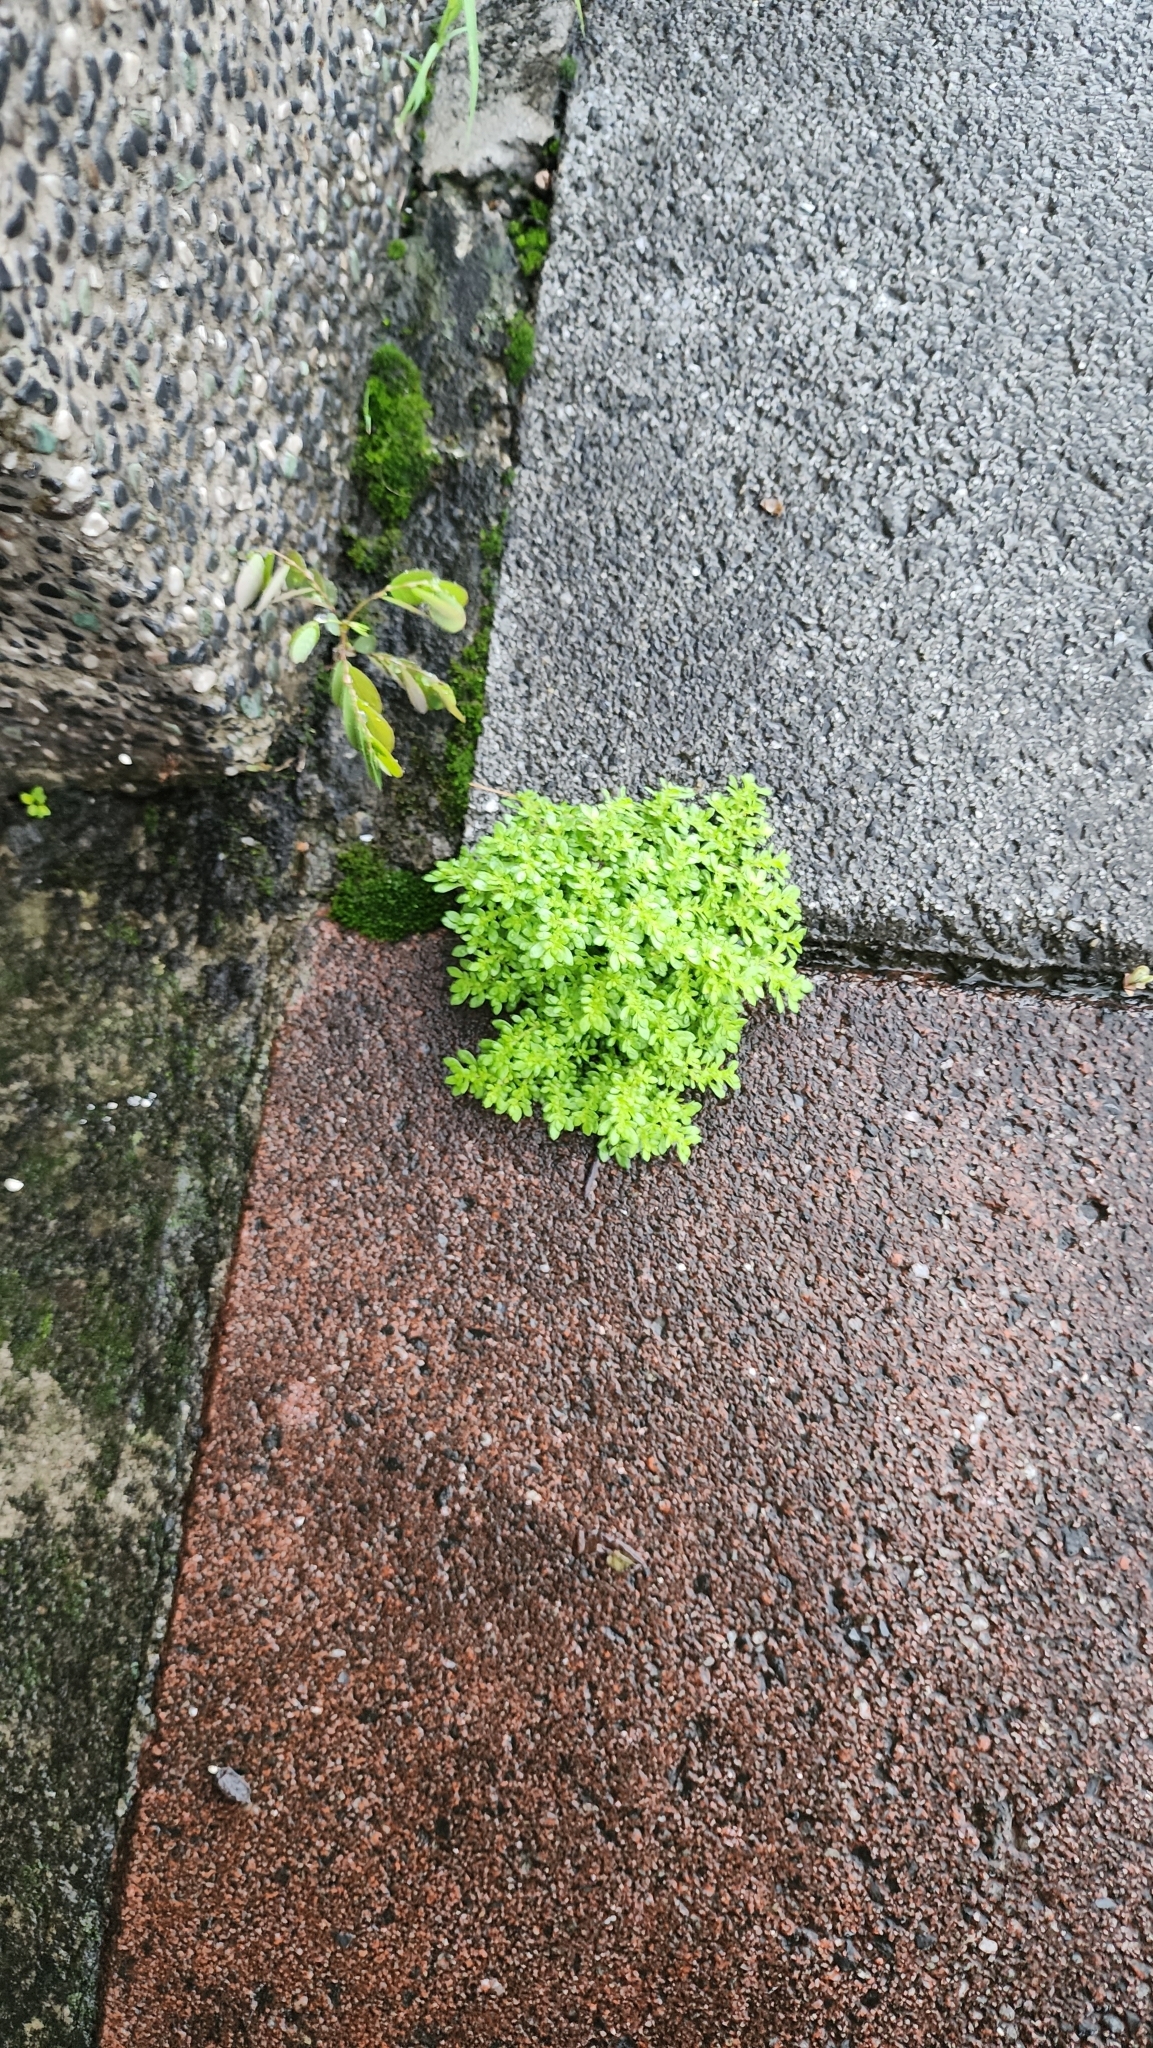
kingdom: Plantae
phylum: Tracheophyta
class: Magnoliopsida
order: Rosales
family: Urticaceae
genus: Pilea
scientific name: Pilea microphylla
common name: Artillery-plant
